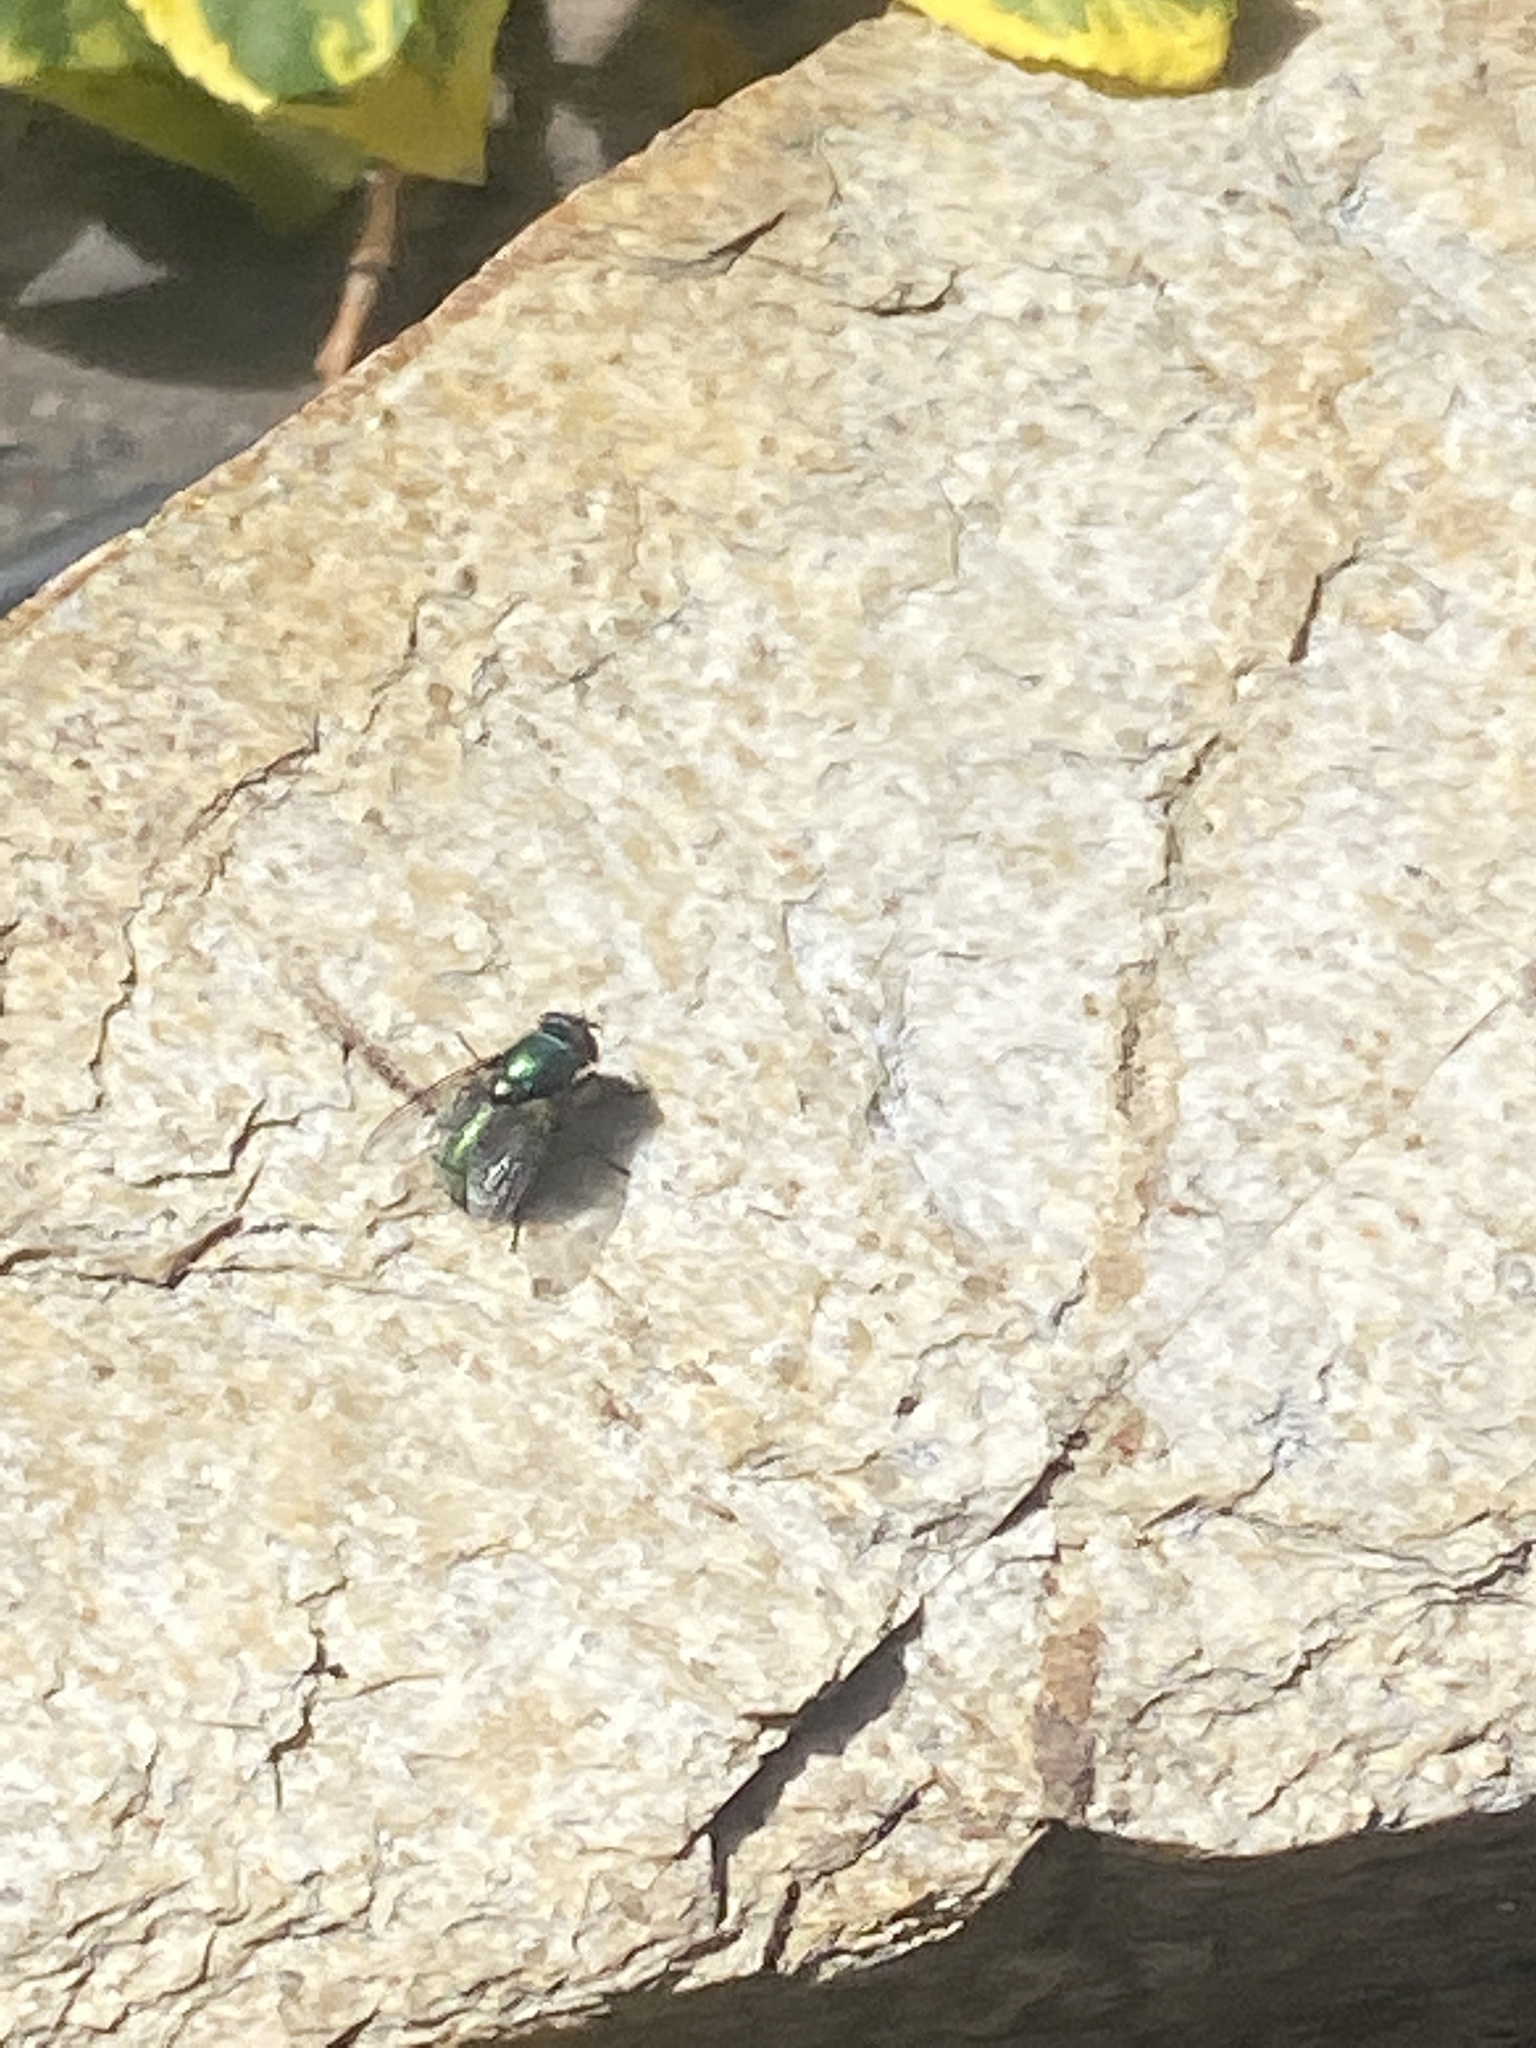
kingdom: Animalia
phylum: Arthropoda
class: Insecta
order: Diptera
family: Calliphoridae
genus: Lucilia
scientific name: Lucilia sericata
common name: Blow fly
